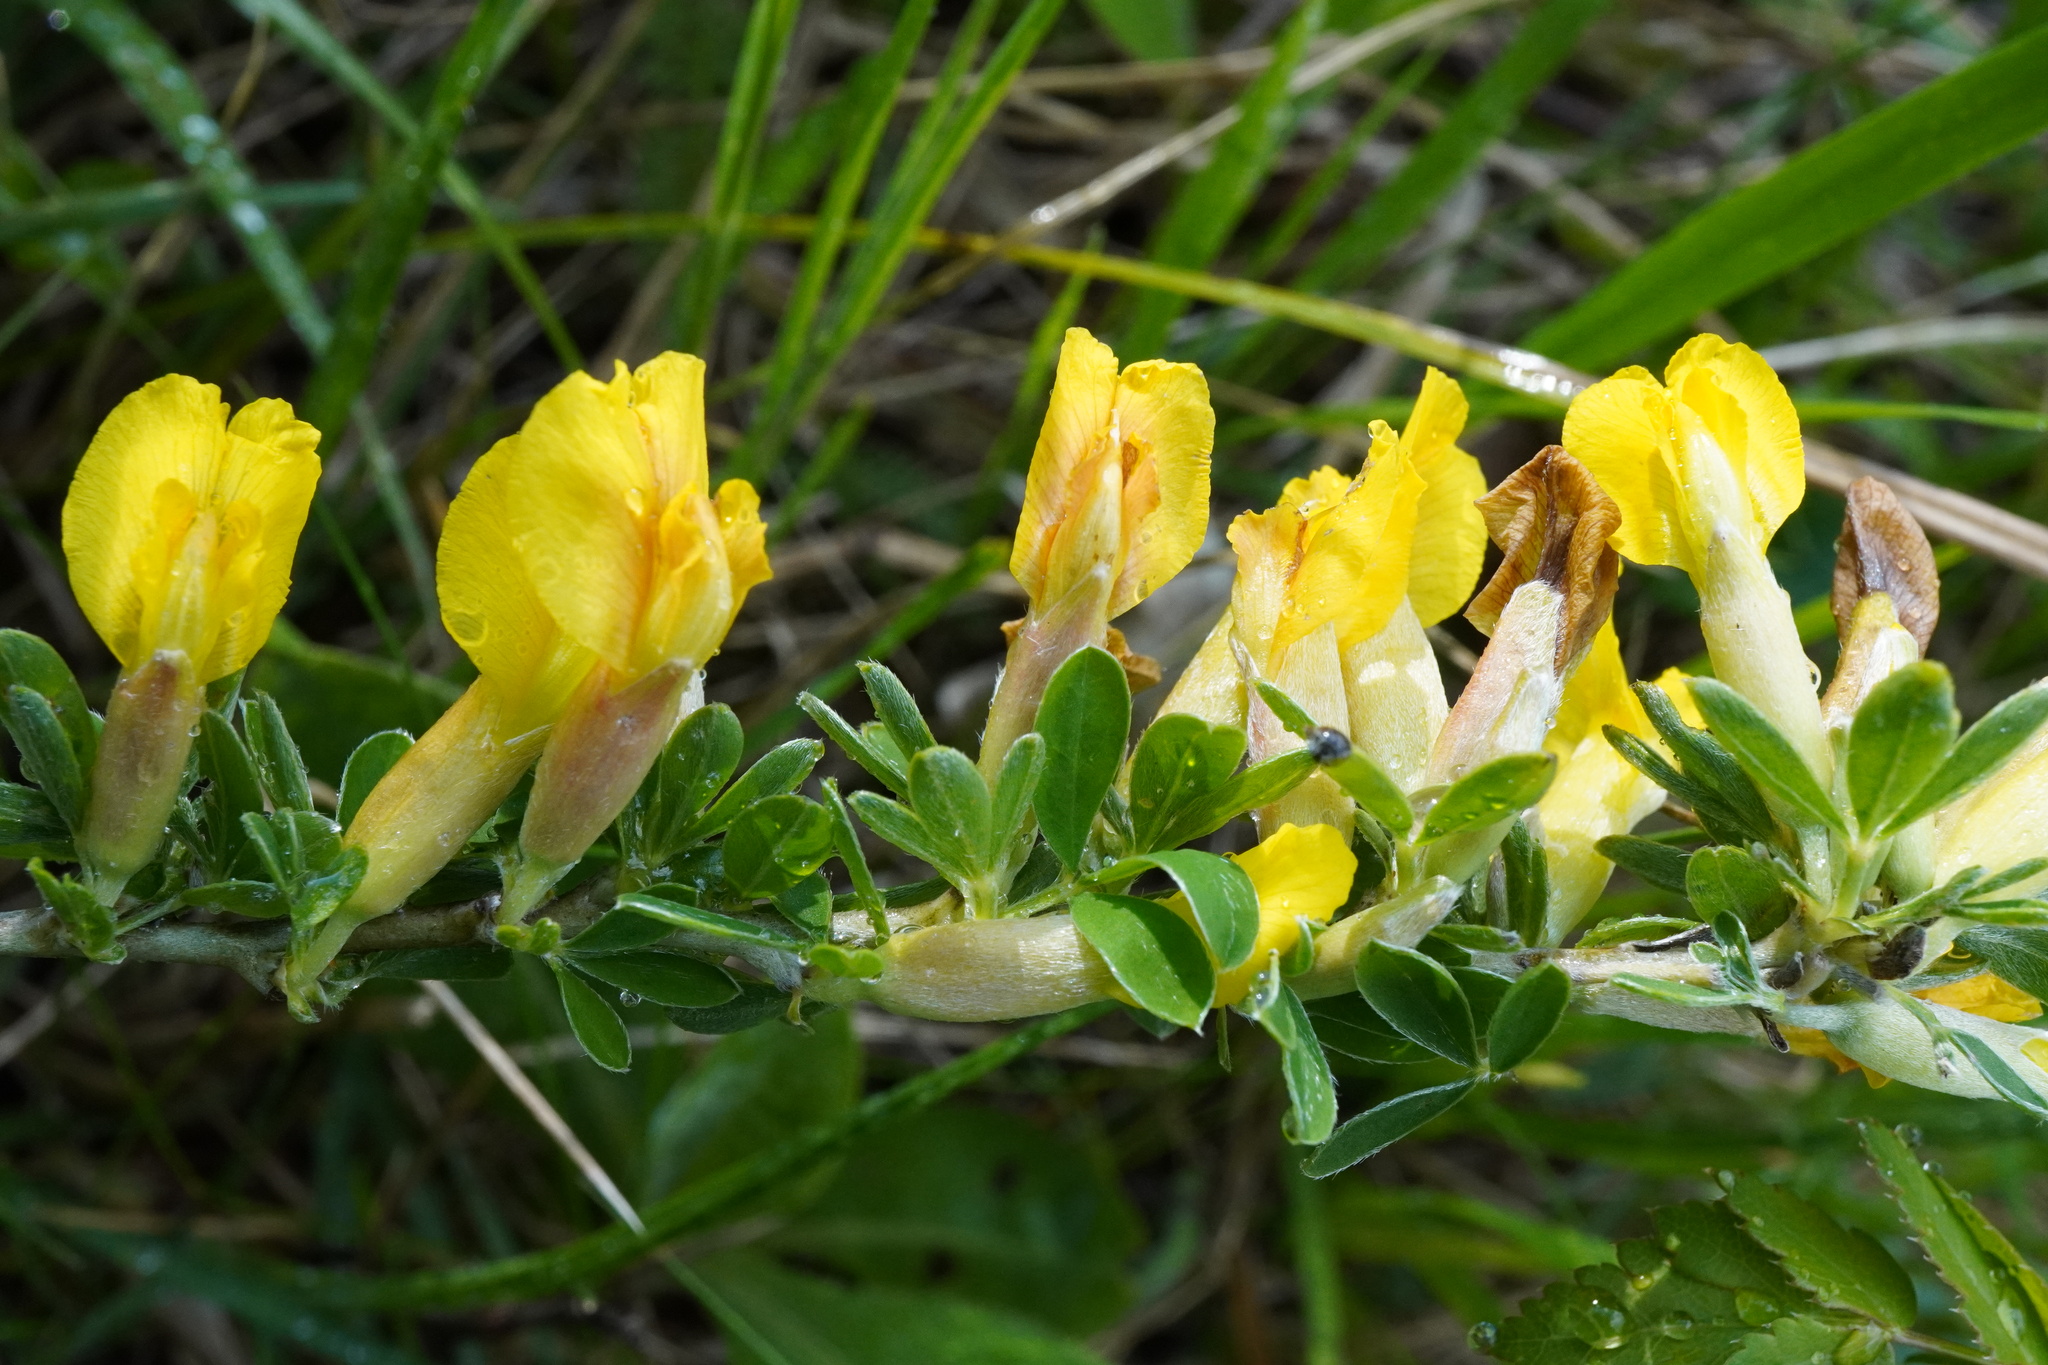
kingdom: Plantae
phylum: Tracheophyta
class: Magnoliopsida
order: Fabales
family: Fabaceae
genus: Chamaecytisus
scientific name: Chamaecytisus ratisbonensis
